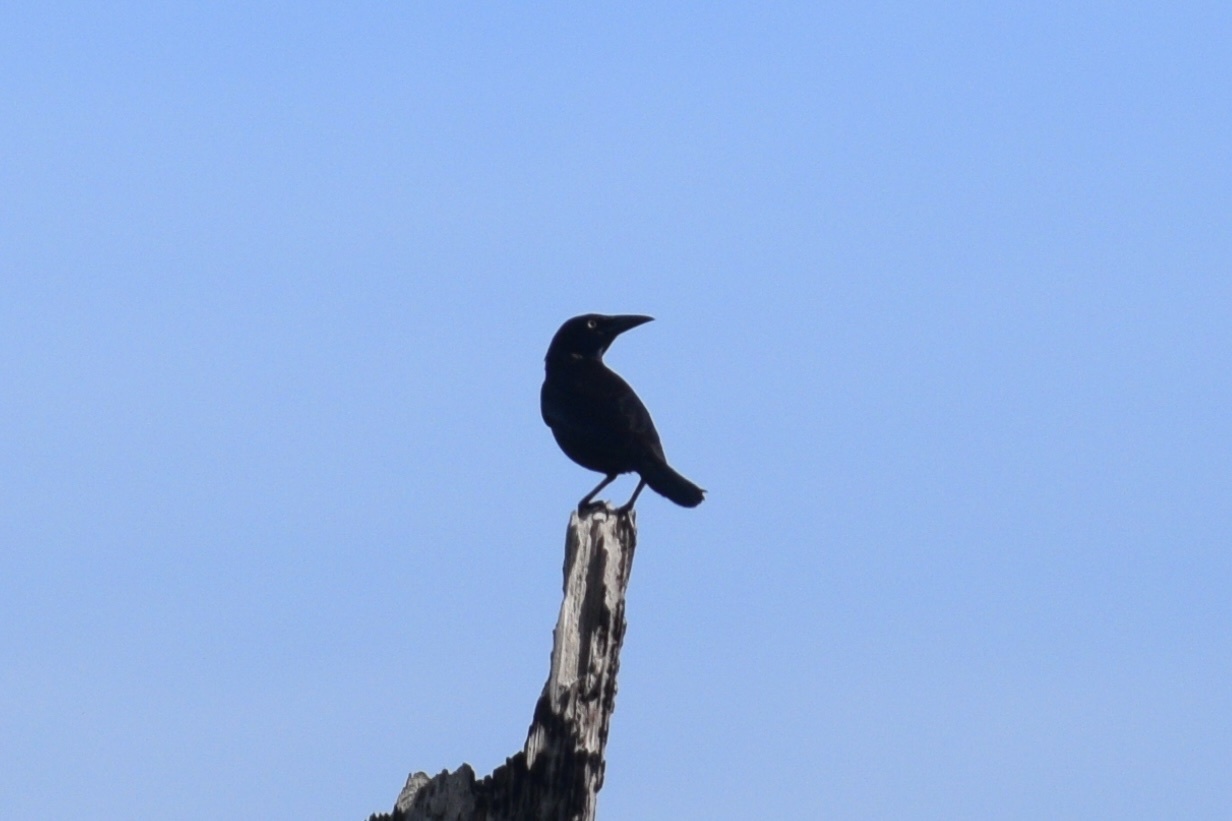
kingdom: Animalia
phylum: Chordata
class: Aves
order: Passeriformes
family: Icteridae
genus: Quiscalus
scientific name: Quiscalus quiscula
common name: Common grackle
